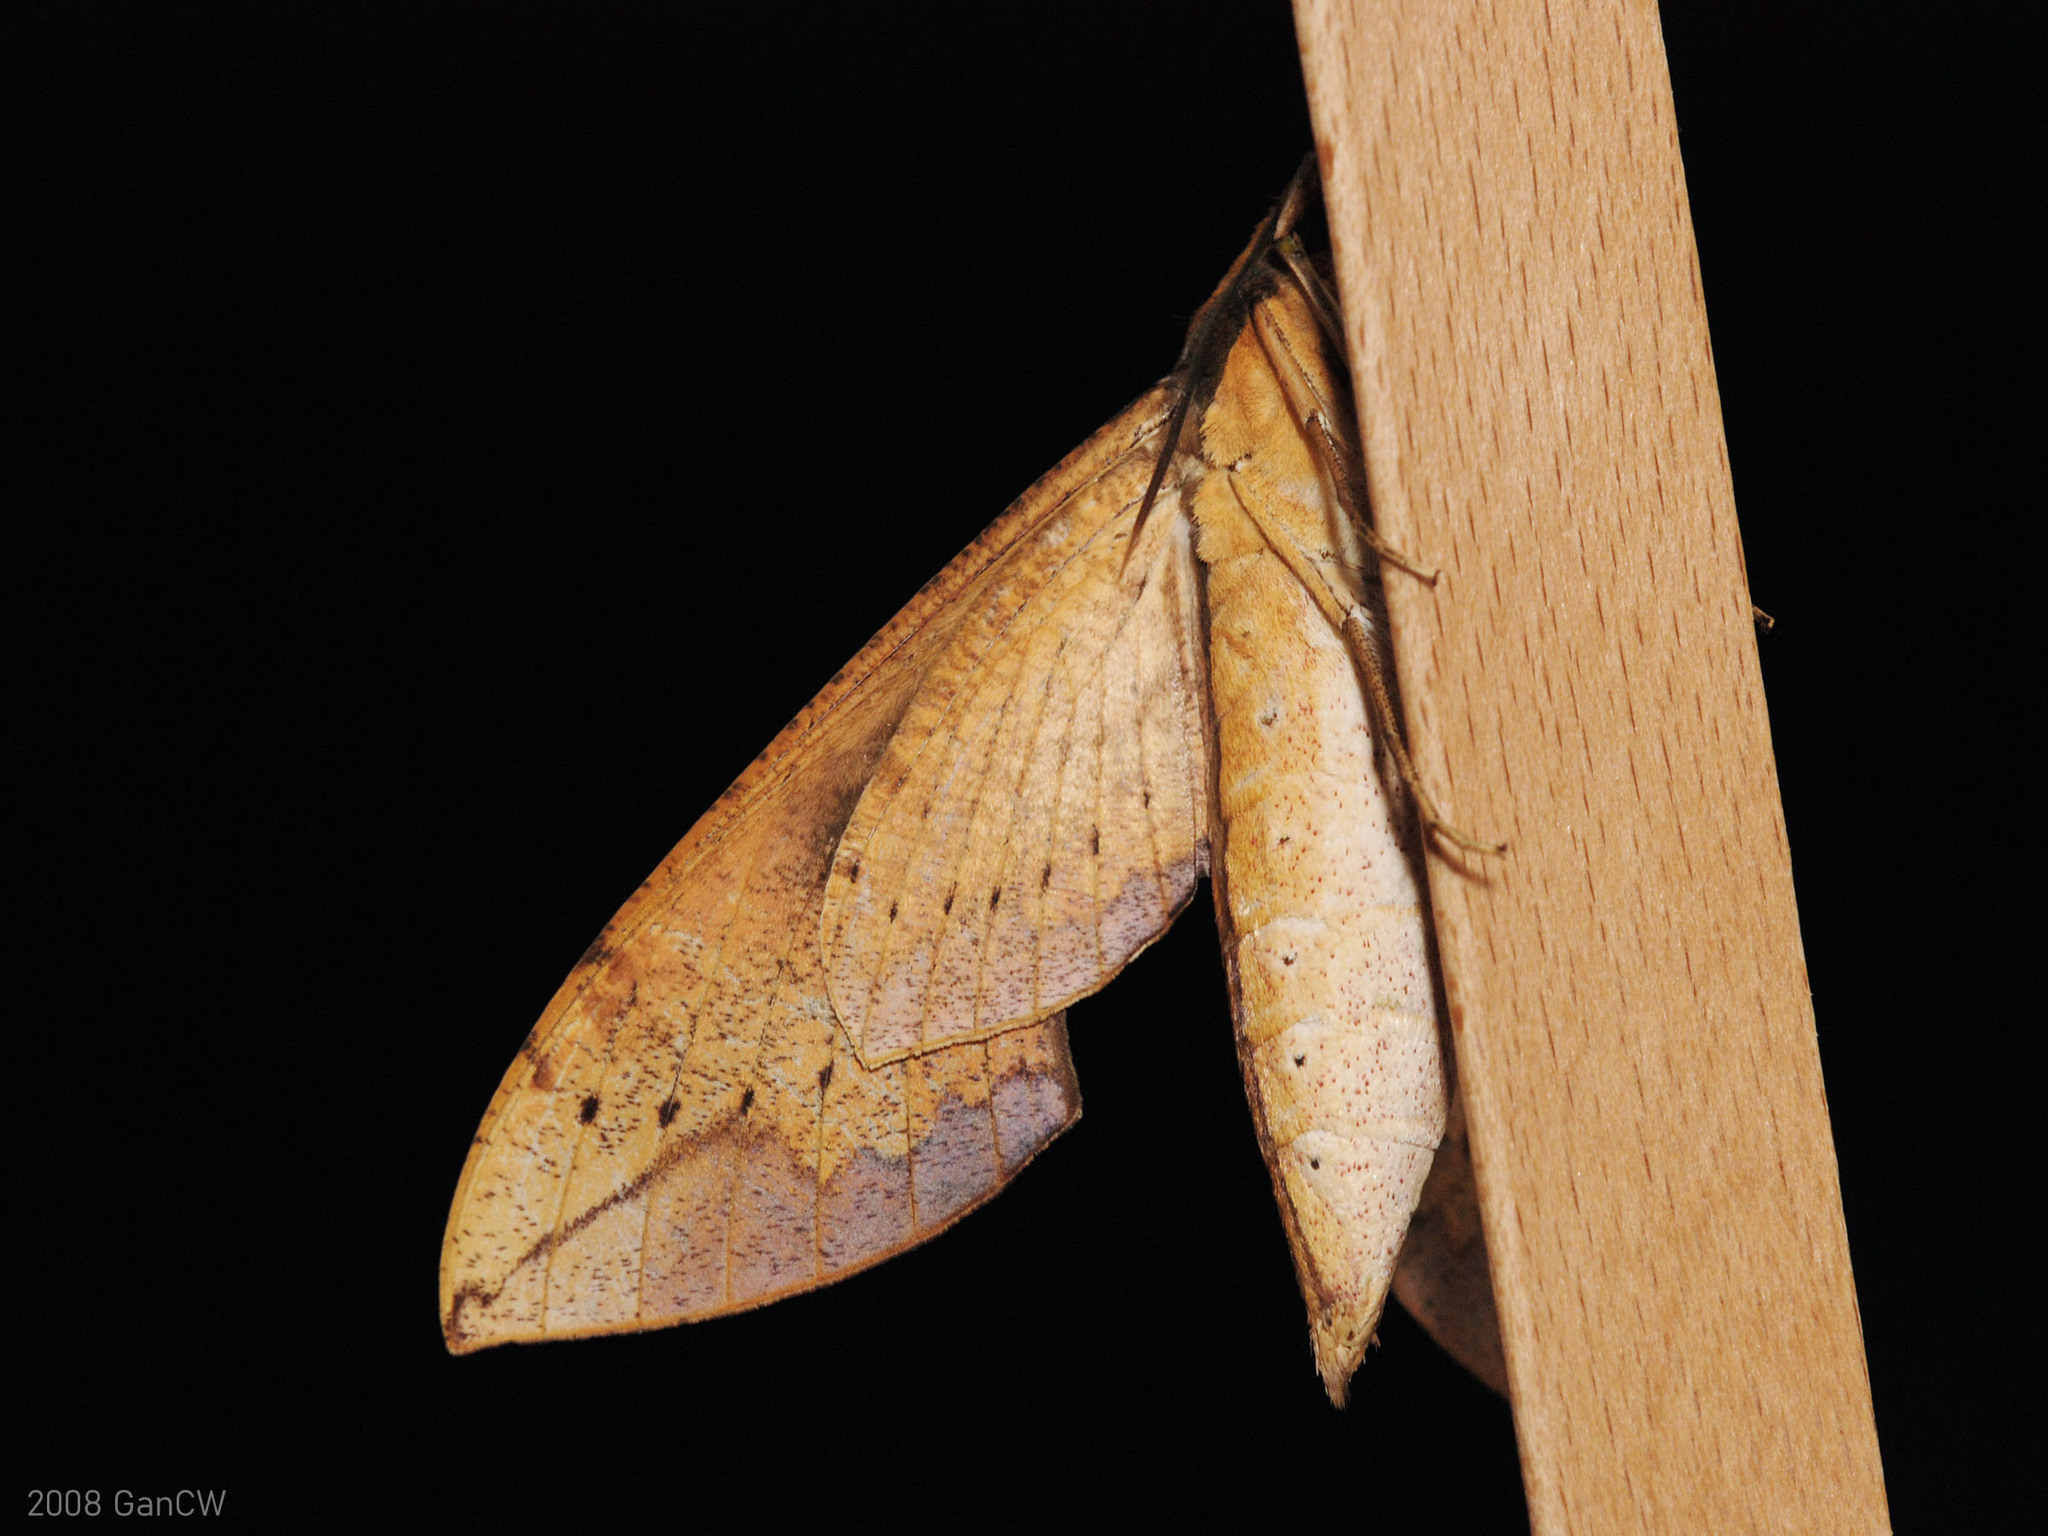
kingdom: Animalia
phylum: Arthropoda
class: Insecta
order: Lepidoptera
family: Sphingidae
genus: Cechenena
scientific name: Cechenena chimaera
